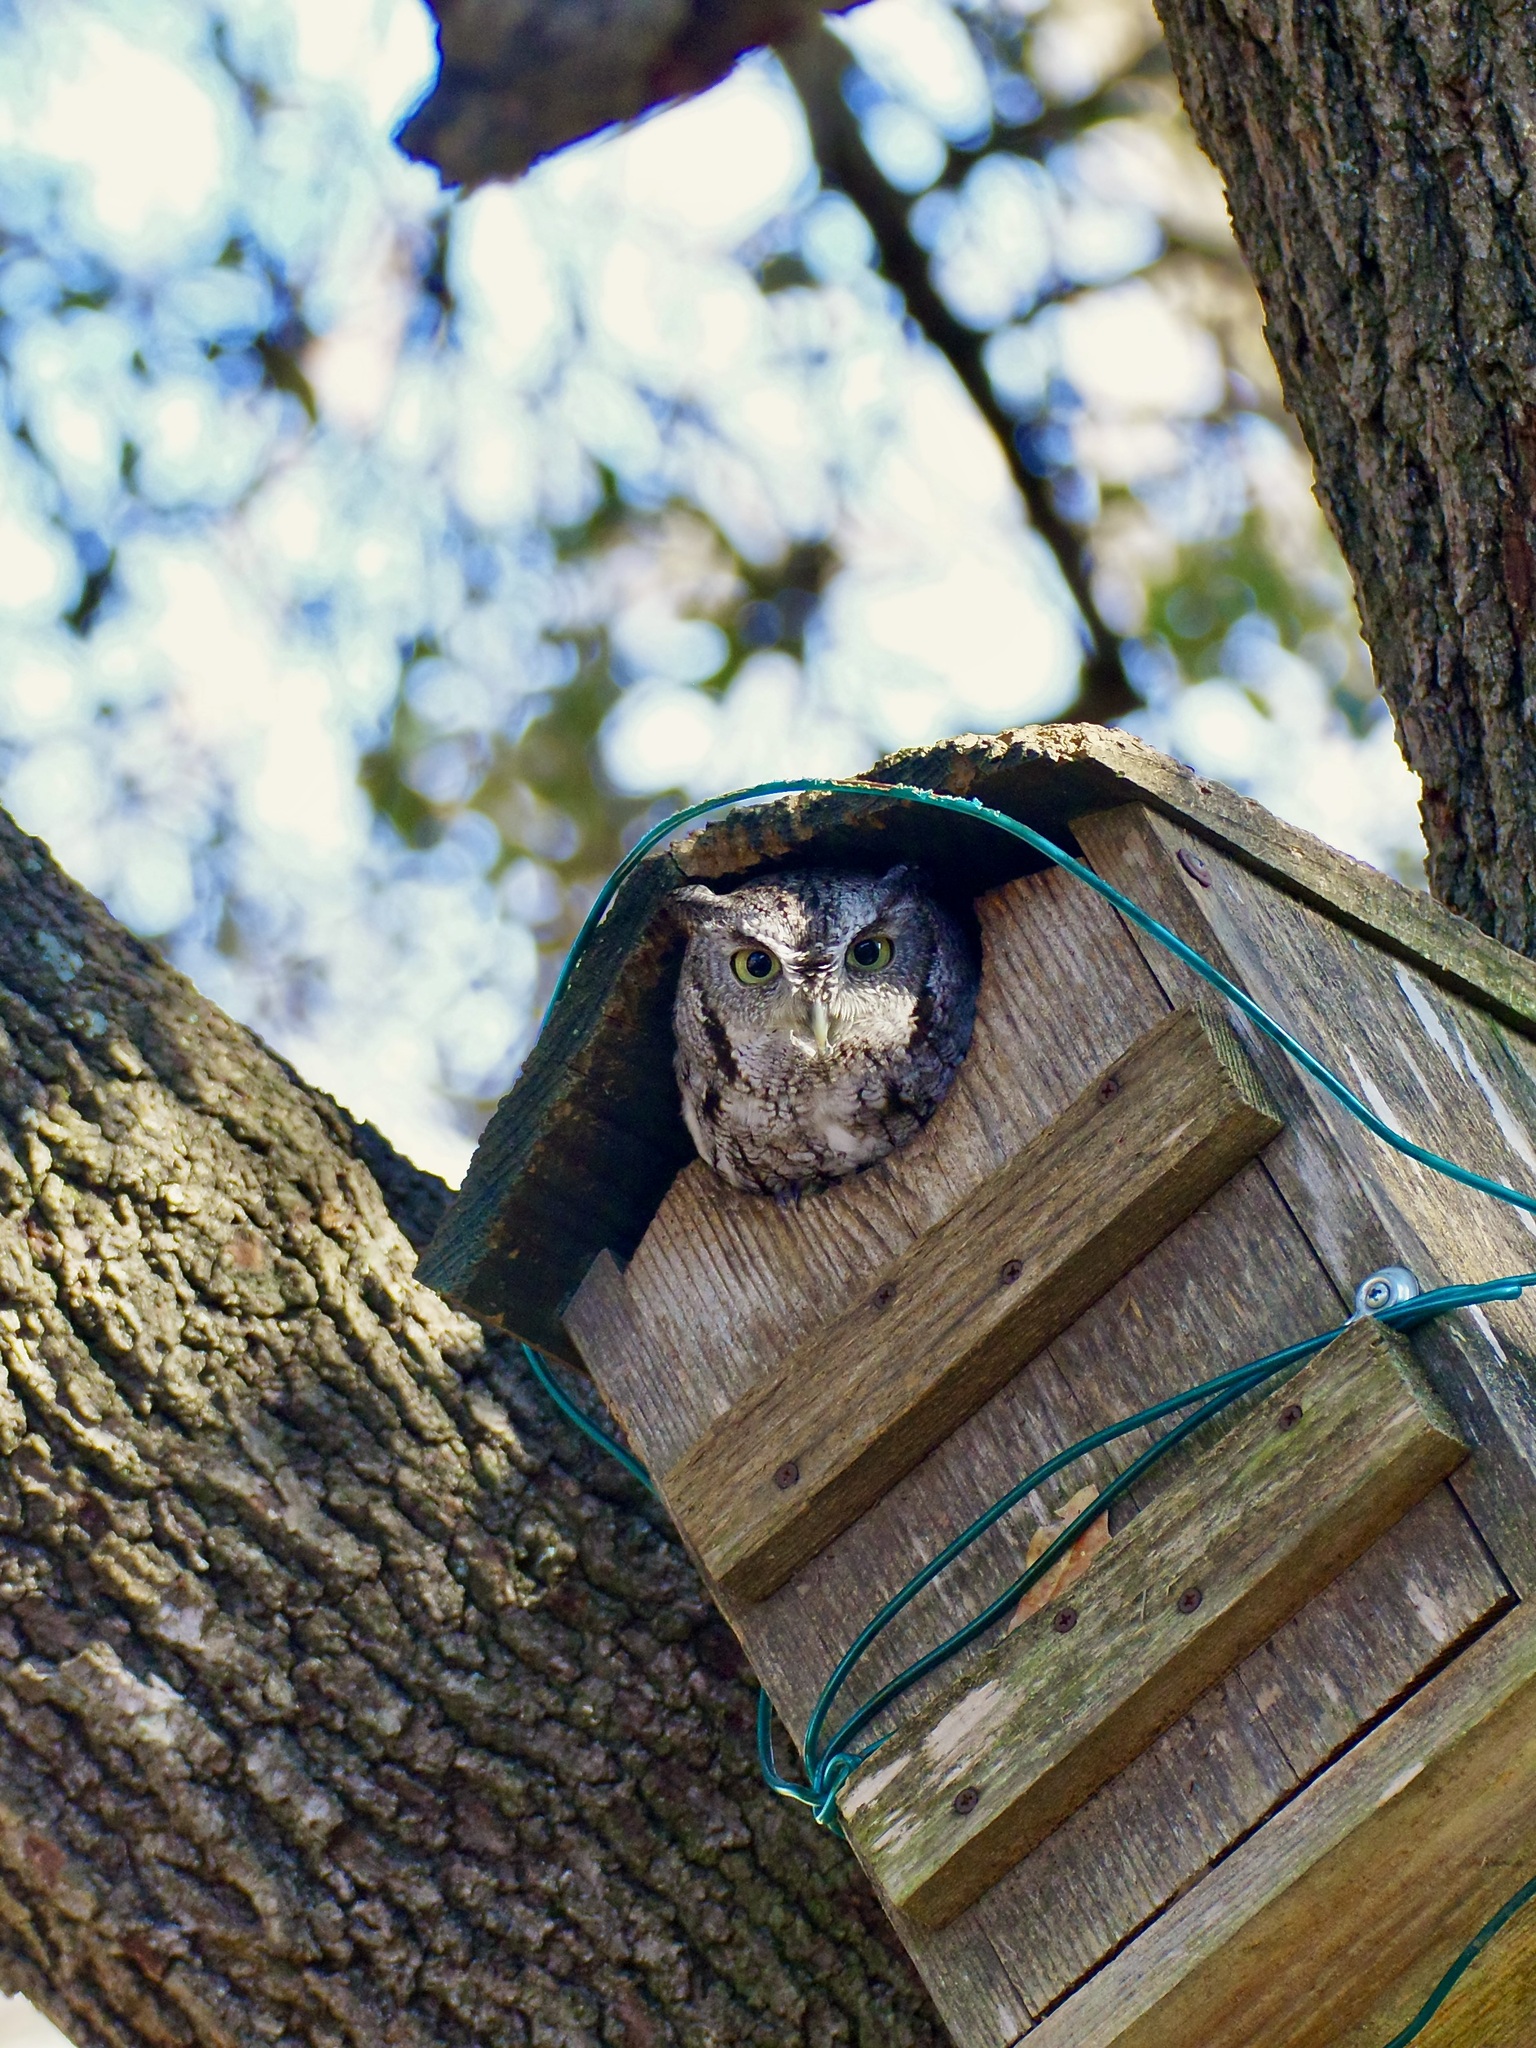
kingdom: Animalia
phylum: Chordata
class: Aves
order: Strigiformes
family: Strigidae
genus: Megascops
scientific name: Megascops asio
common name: Eastern screech-owl
